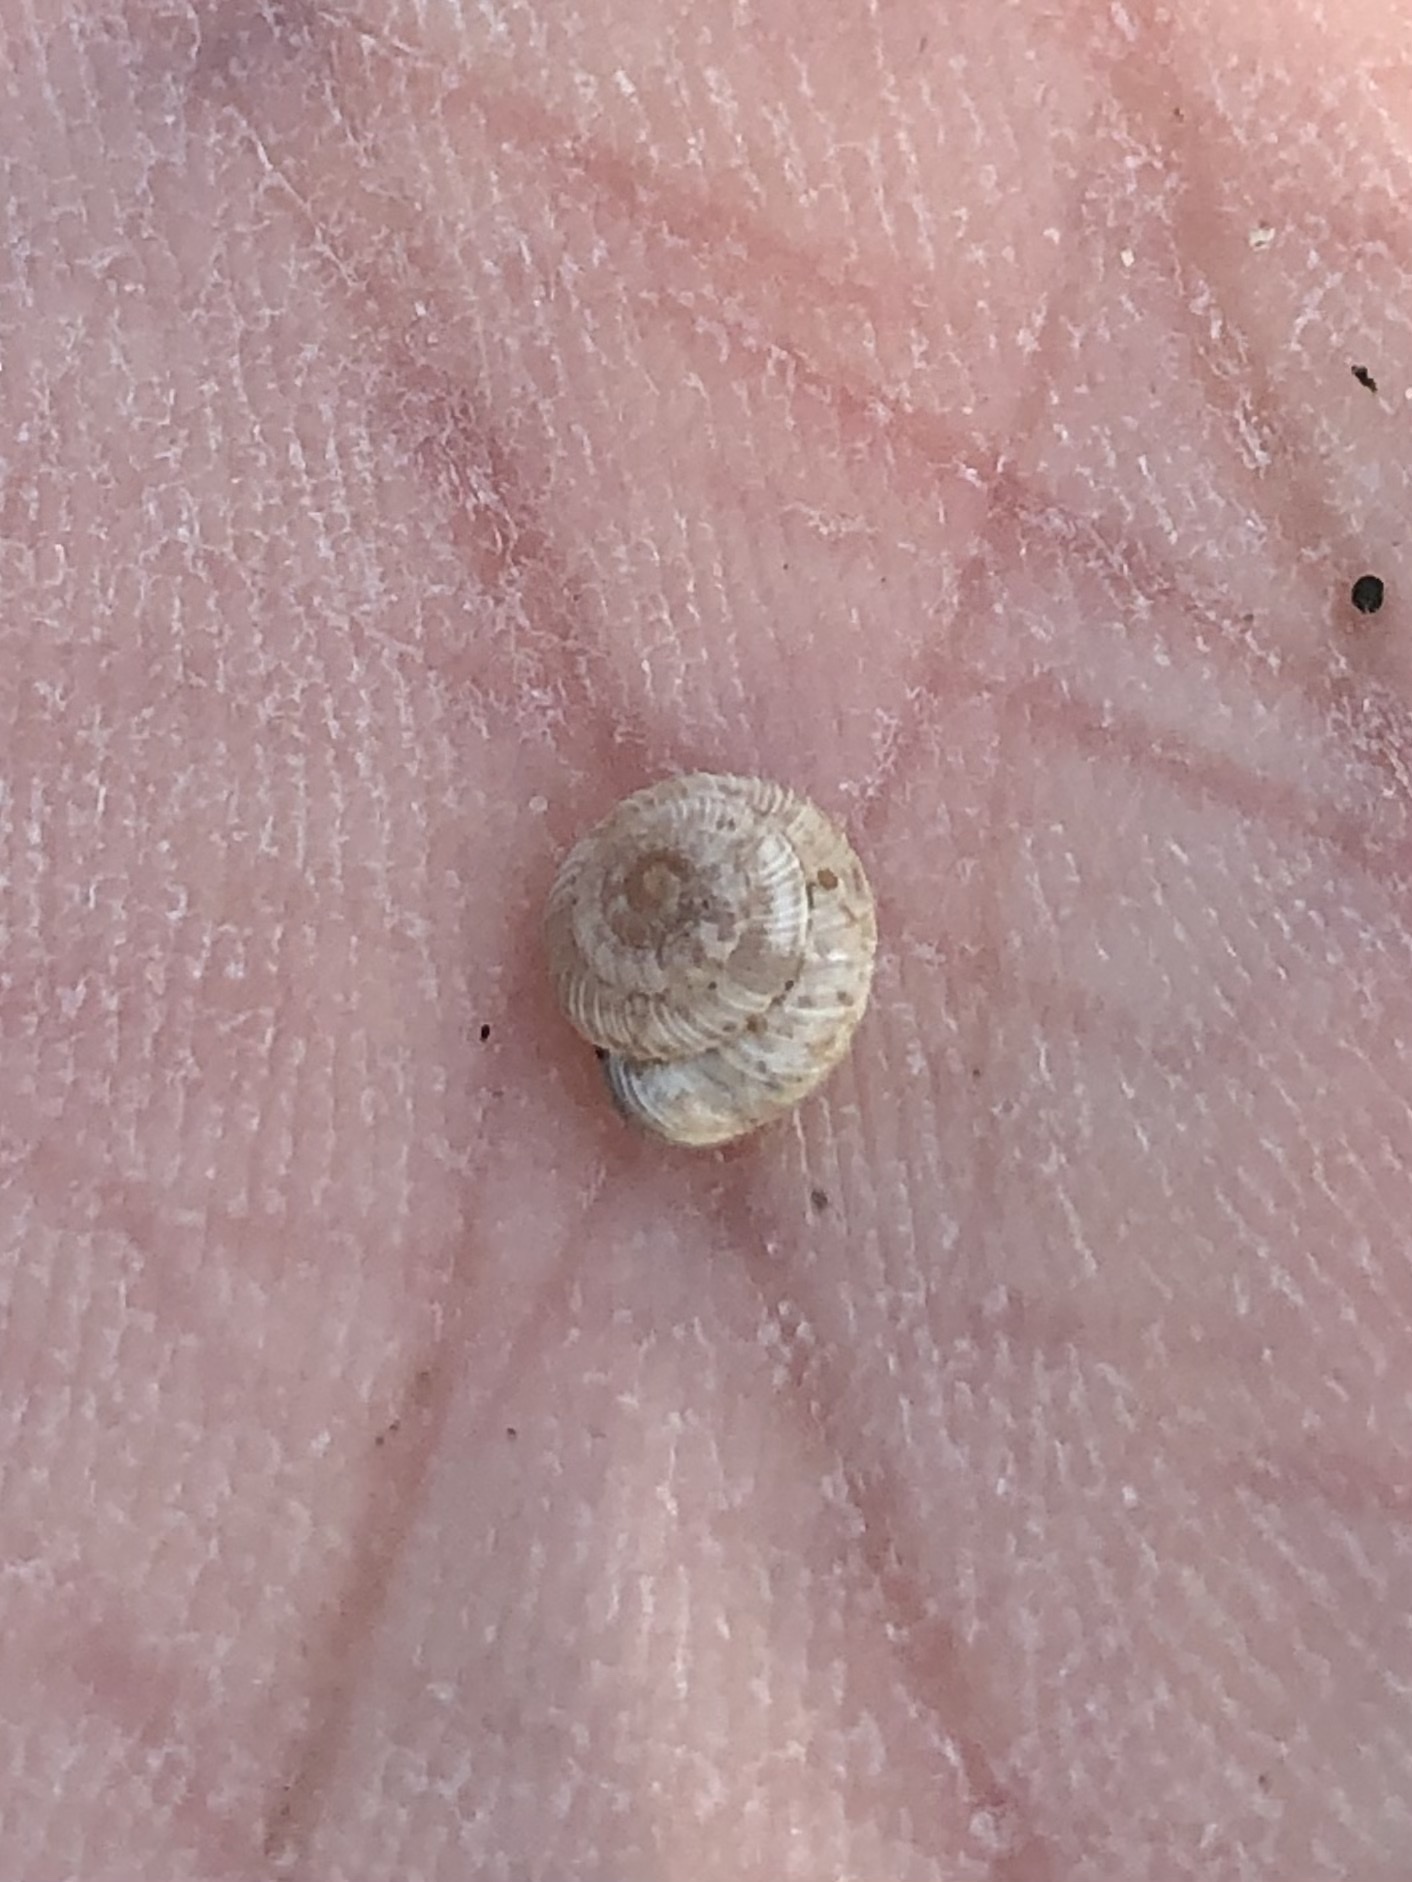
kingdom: Animalia
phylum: Mollusca
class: Gastropoda
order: Stylommatophora
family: Geomitridae
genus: Xerocrassa
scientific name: Xerocrassa penchinati
